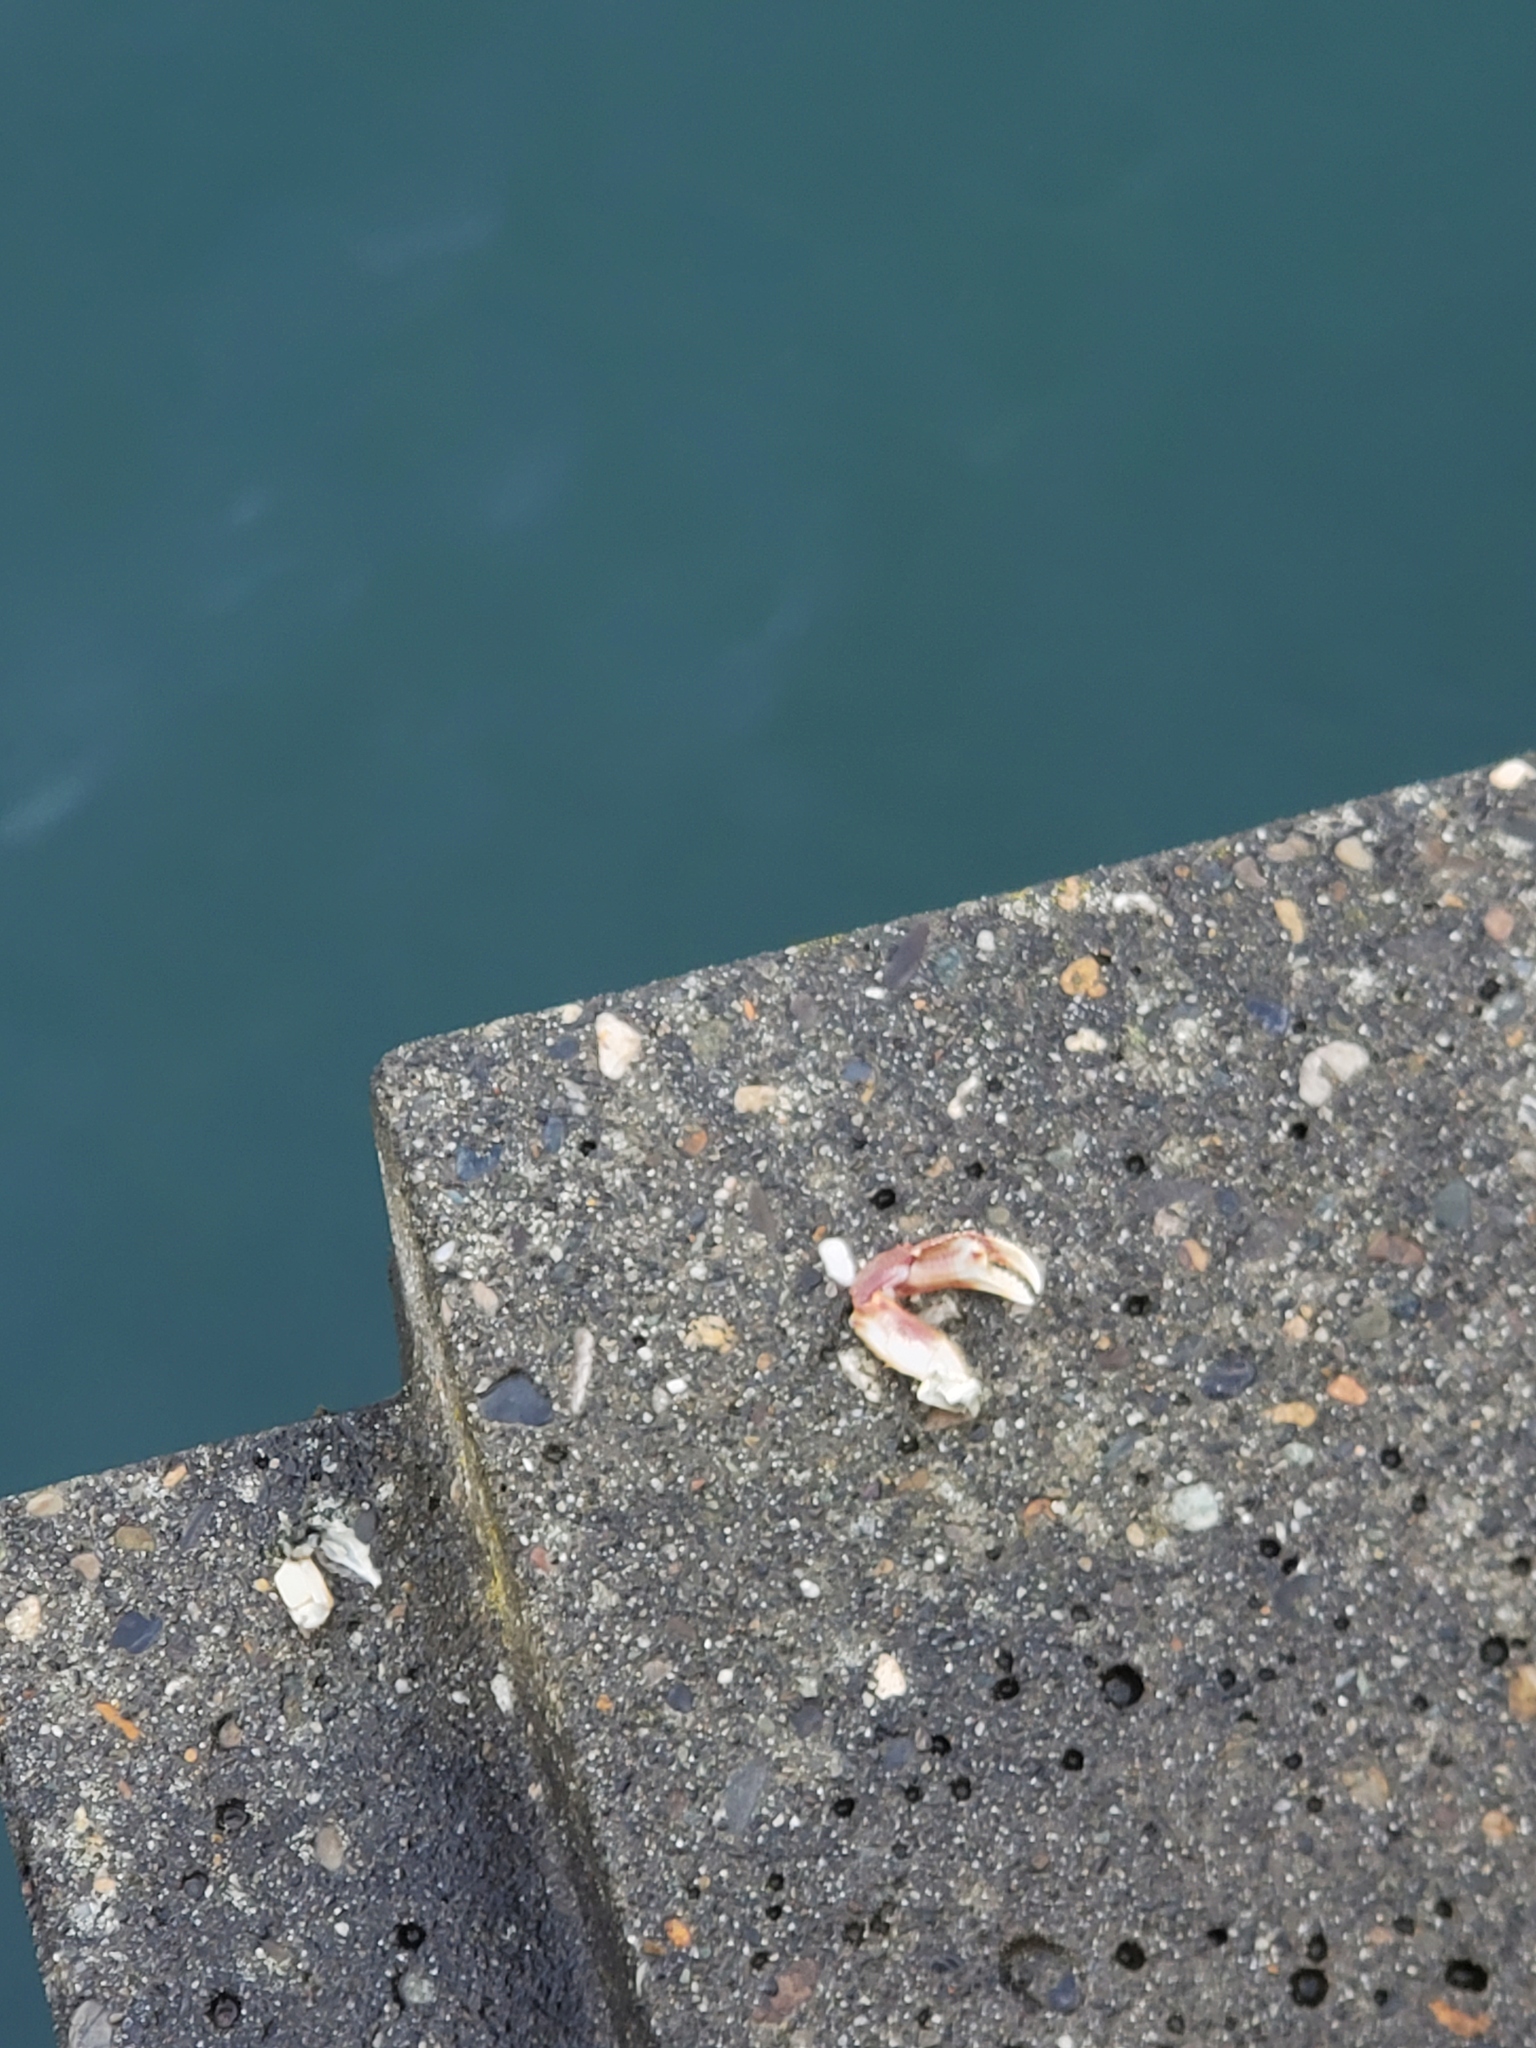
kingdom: Animalia
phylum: Arthropoda
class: Malacostraca
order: Decapoda
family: Cancridae
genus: Metacarcinus
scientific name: Metacarcinus magister
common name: Californian crab
